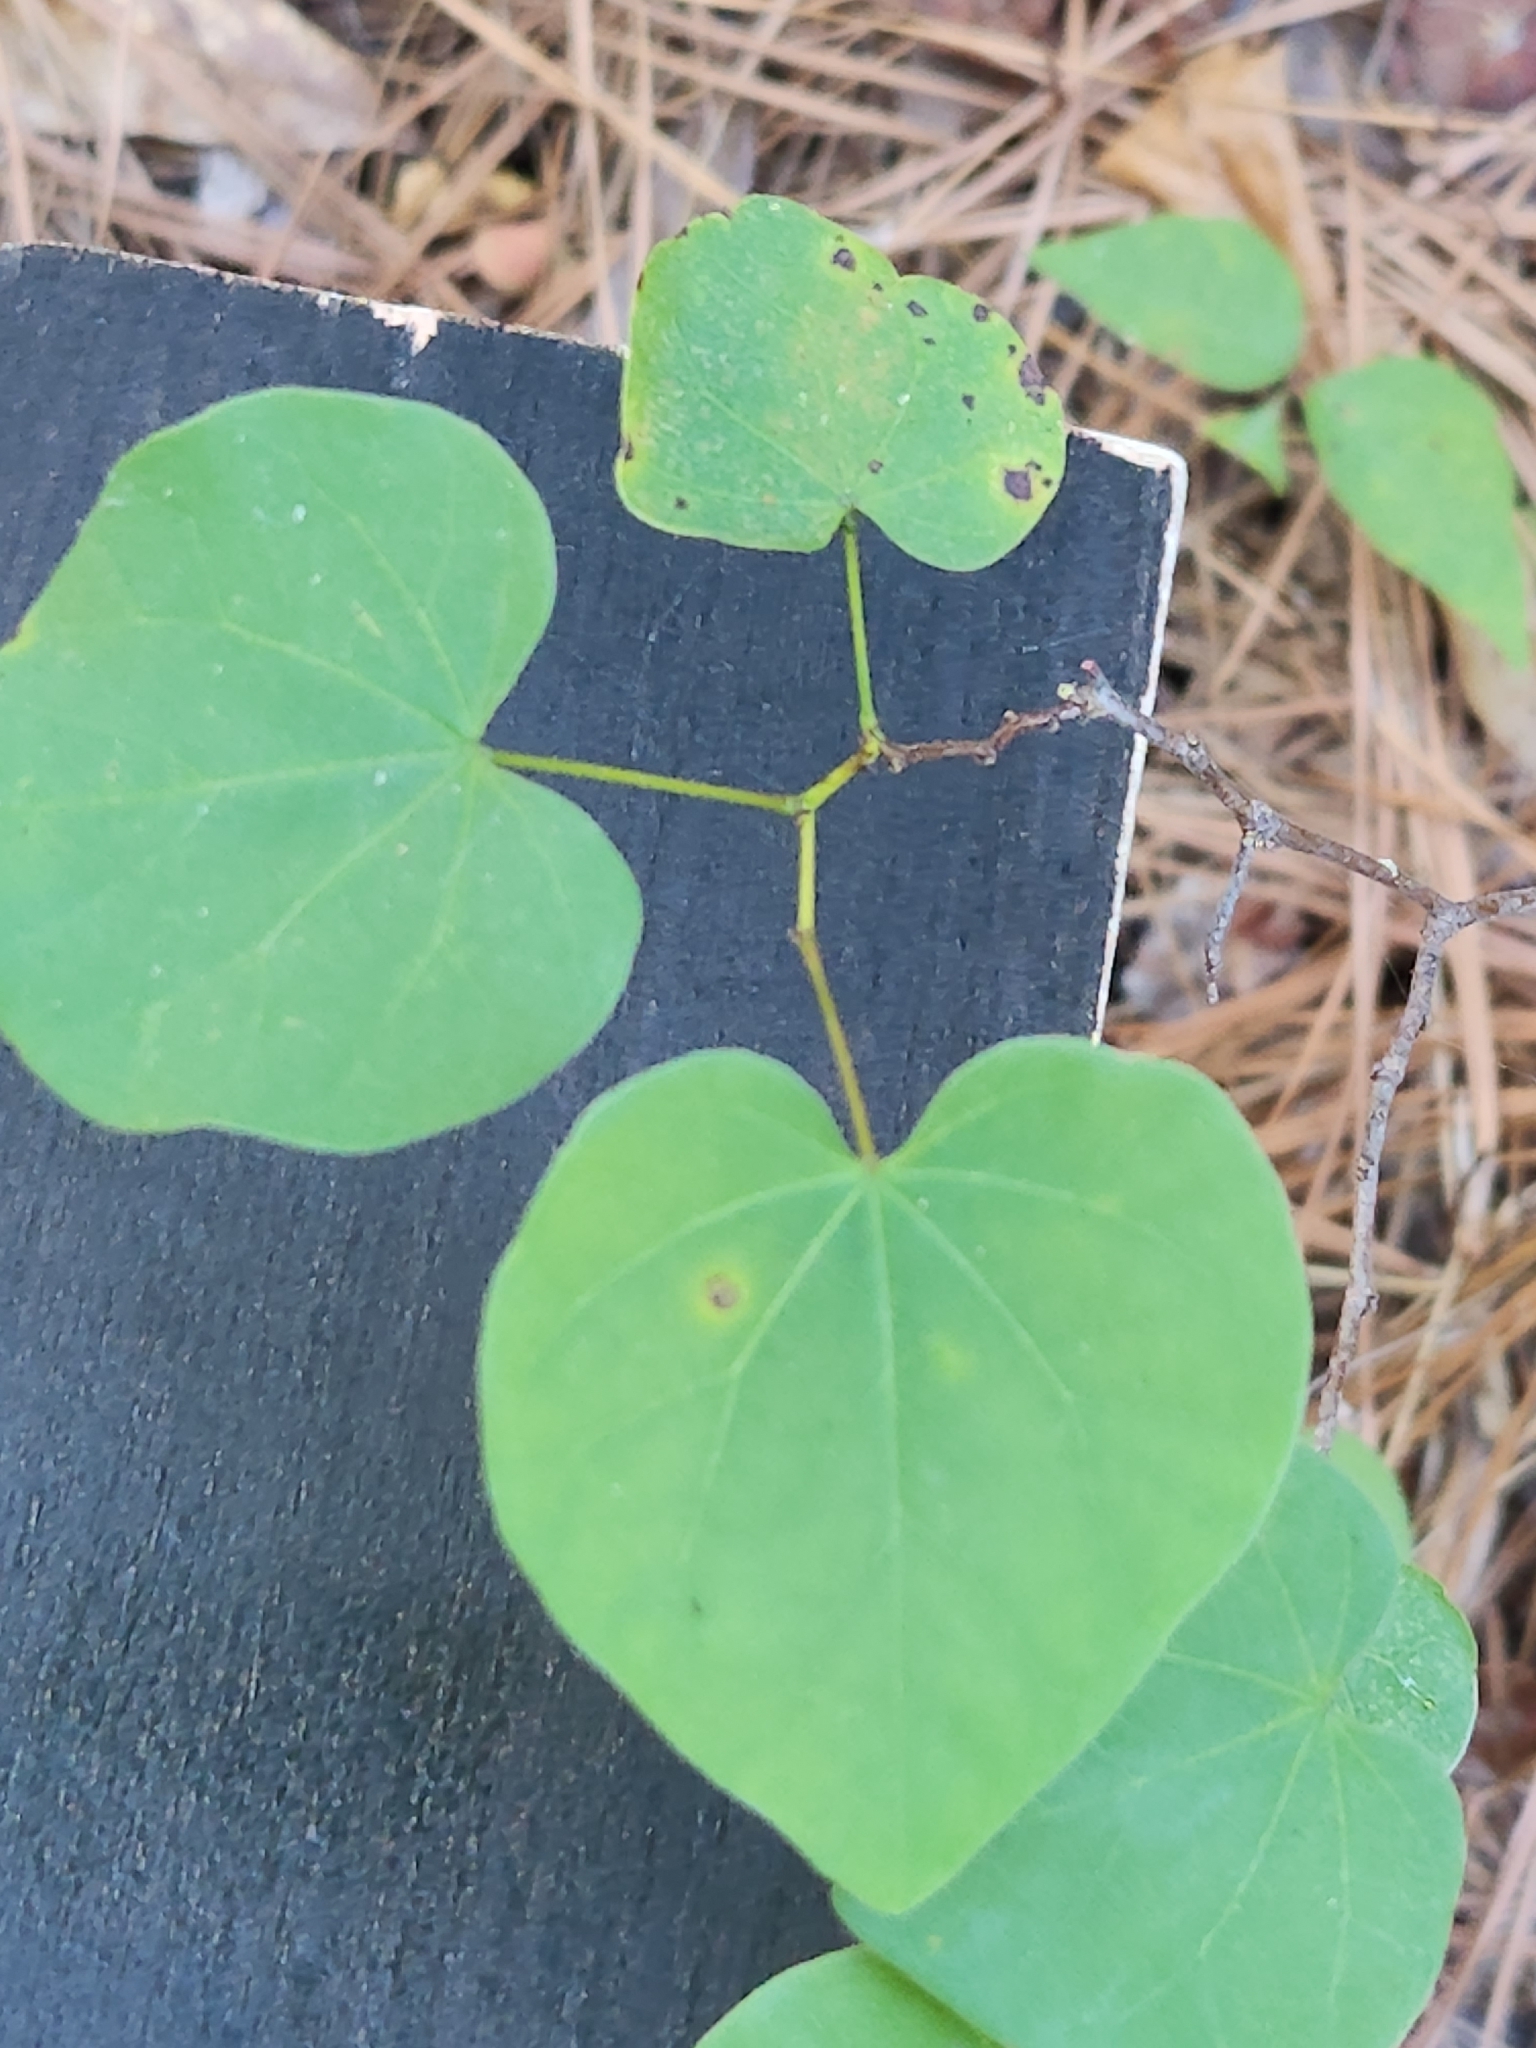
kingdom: Plantae
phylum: Tracheophyta
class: Magnoliopsida
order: Fabales
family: Fabaceae
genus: Cercis
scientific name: Cercis canadensis
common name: Eastern redbud
